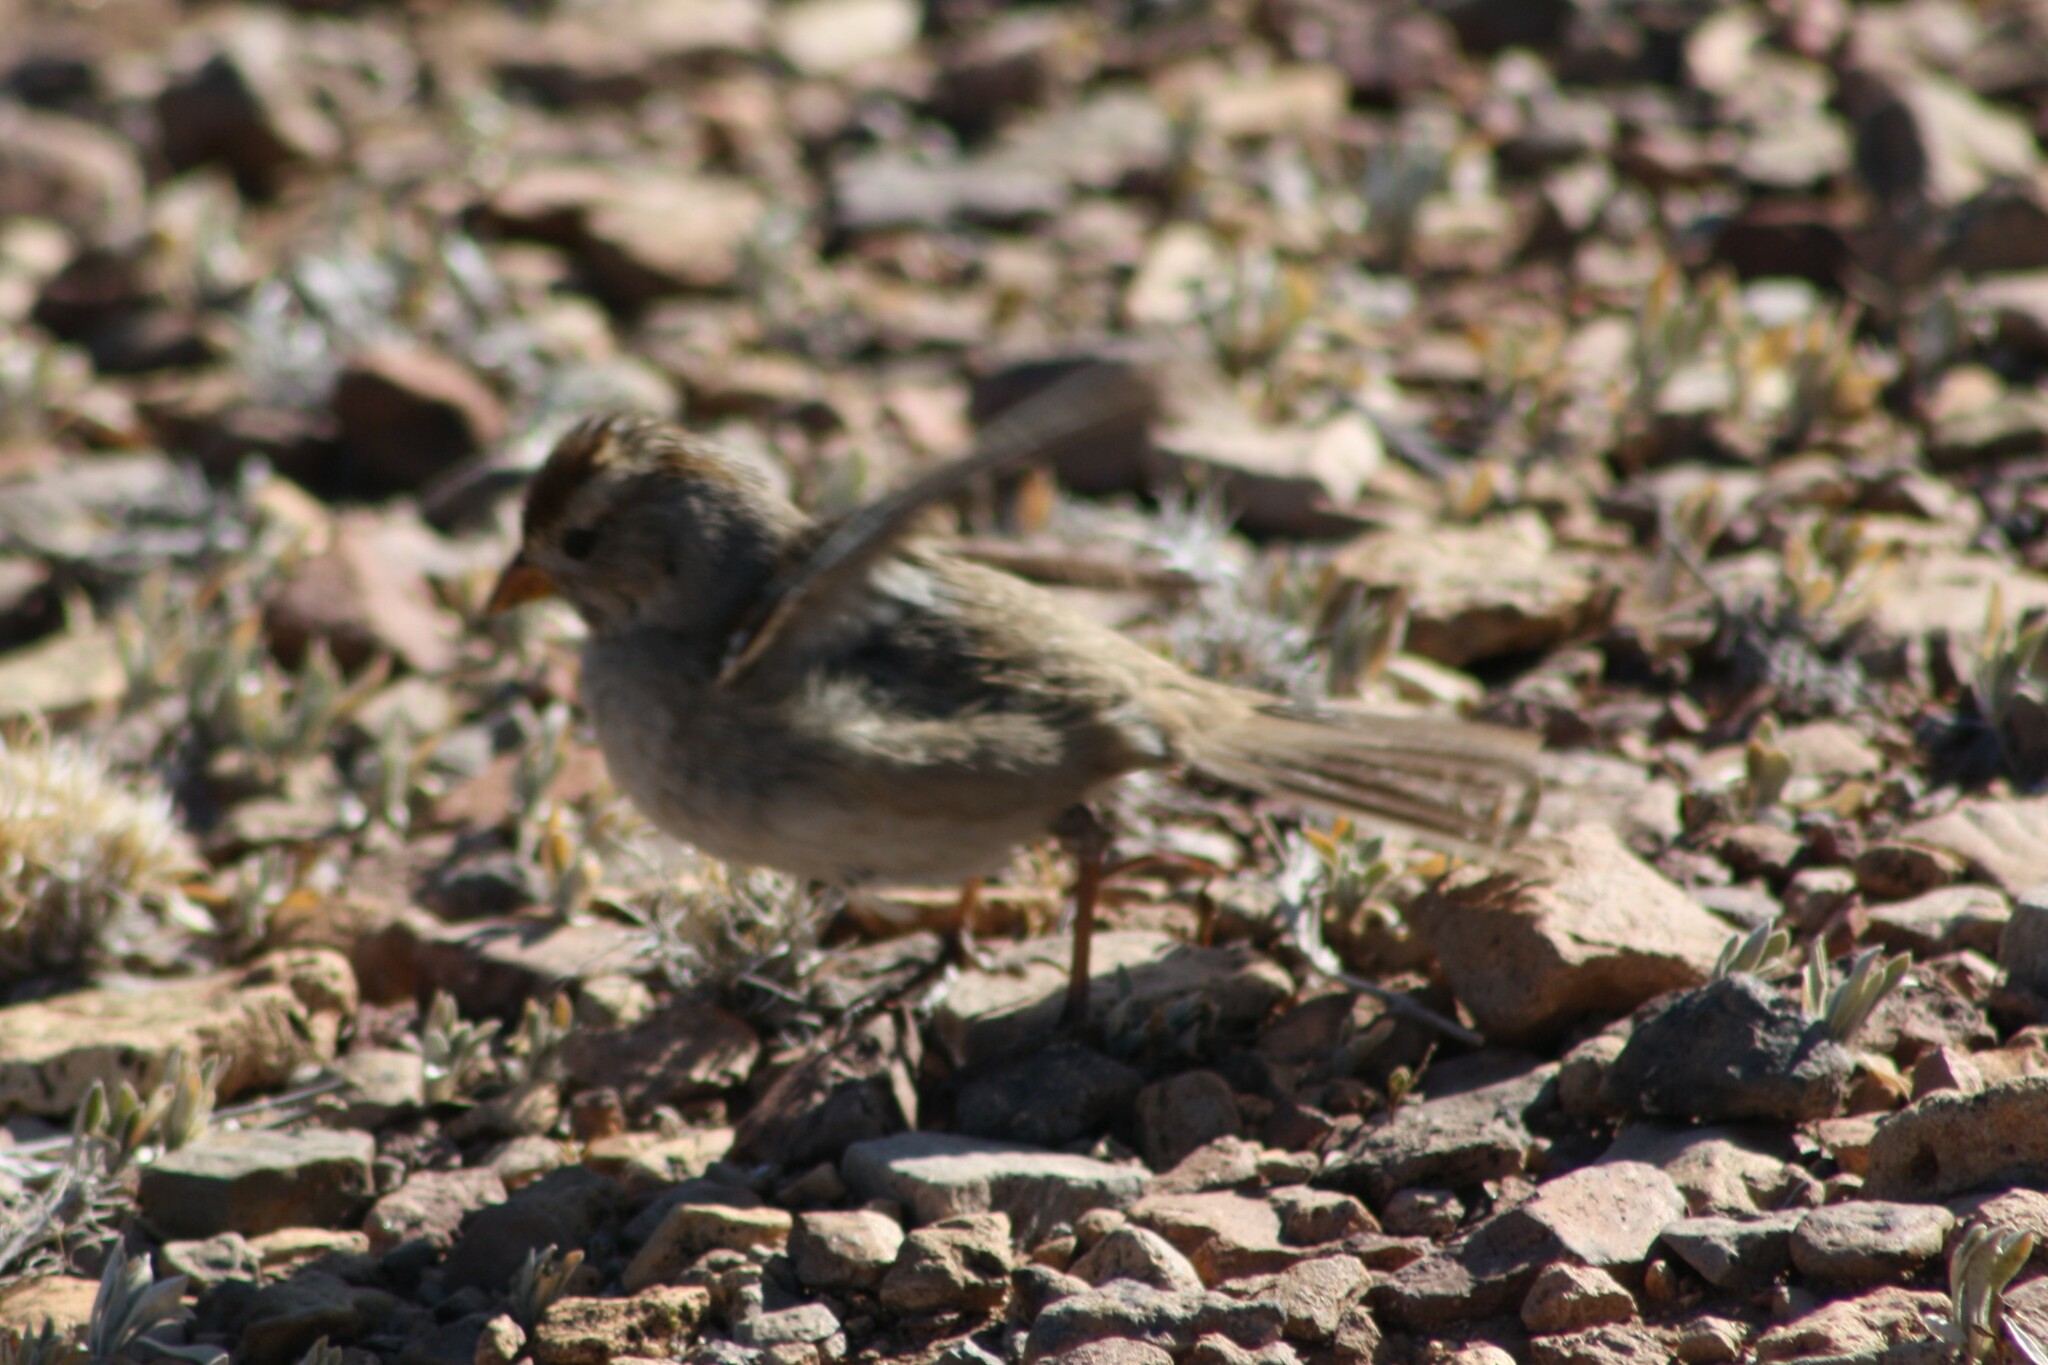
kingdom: Animalia
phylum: Chordata
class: Aves
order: Passeriformes
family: Passerellidae
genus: Zonotrichia
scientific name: Zonotrichia leucophrys
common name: White-crowned sparrow
